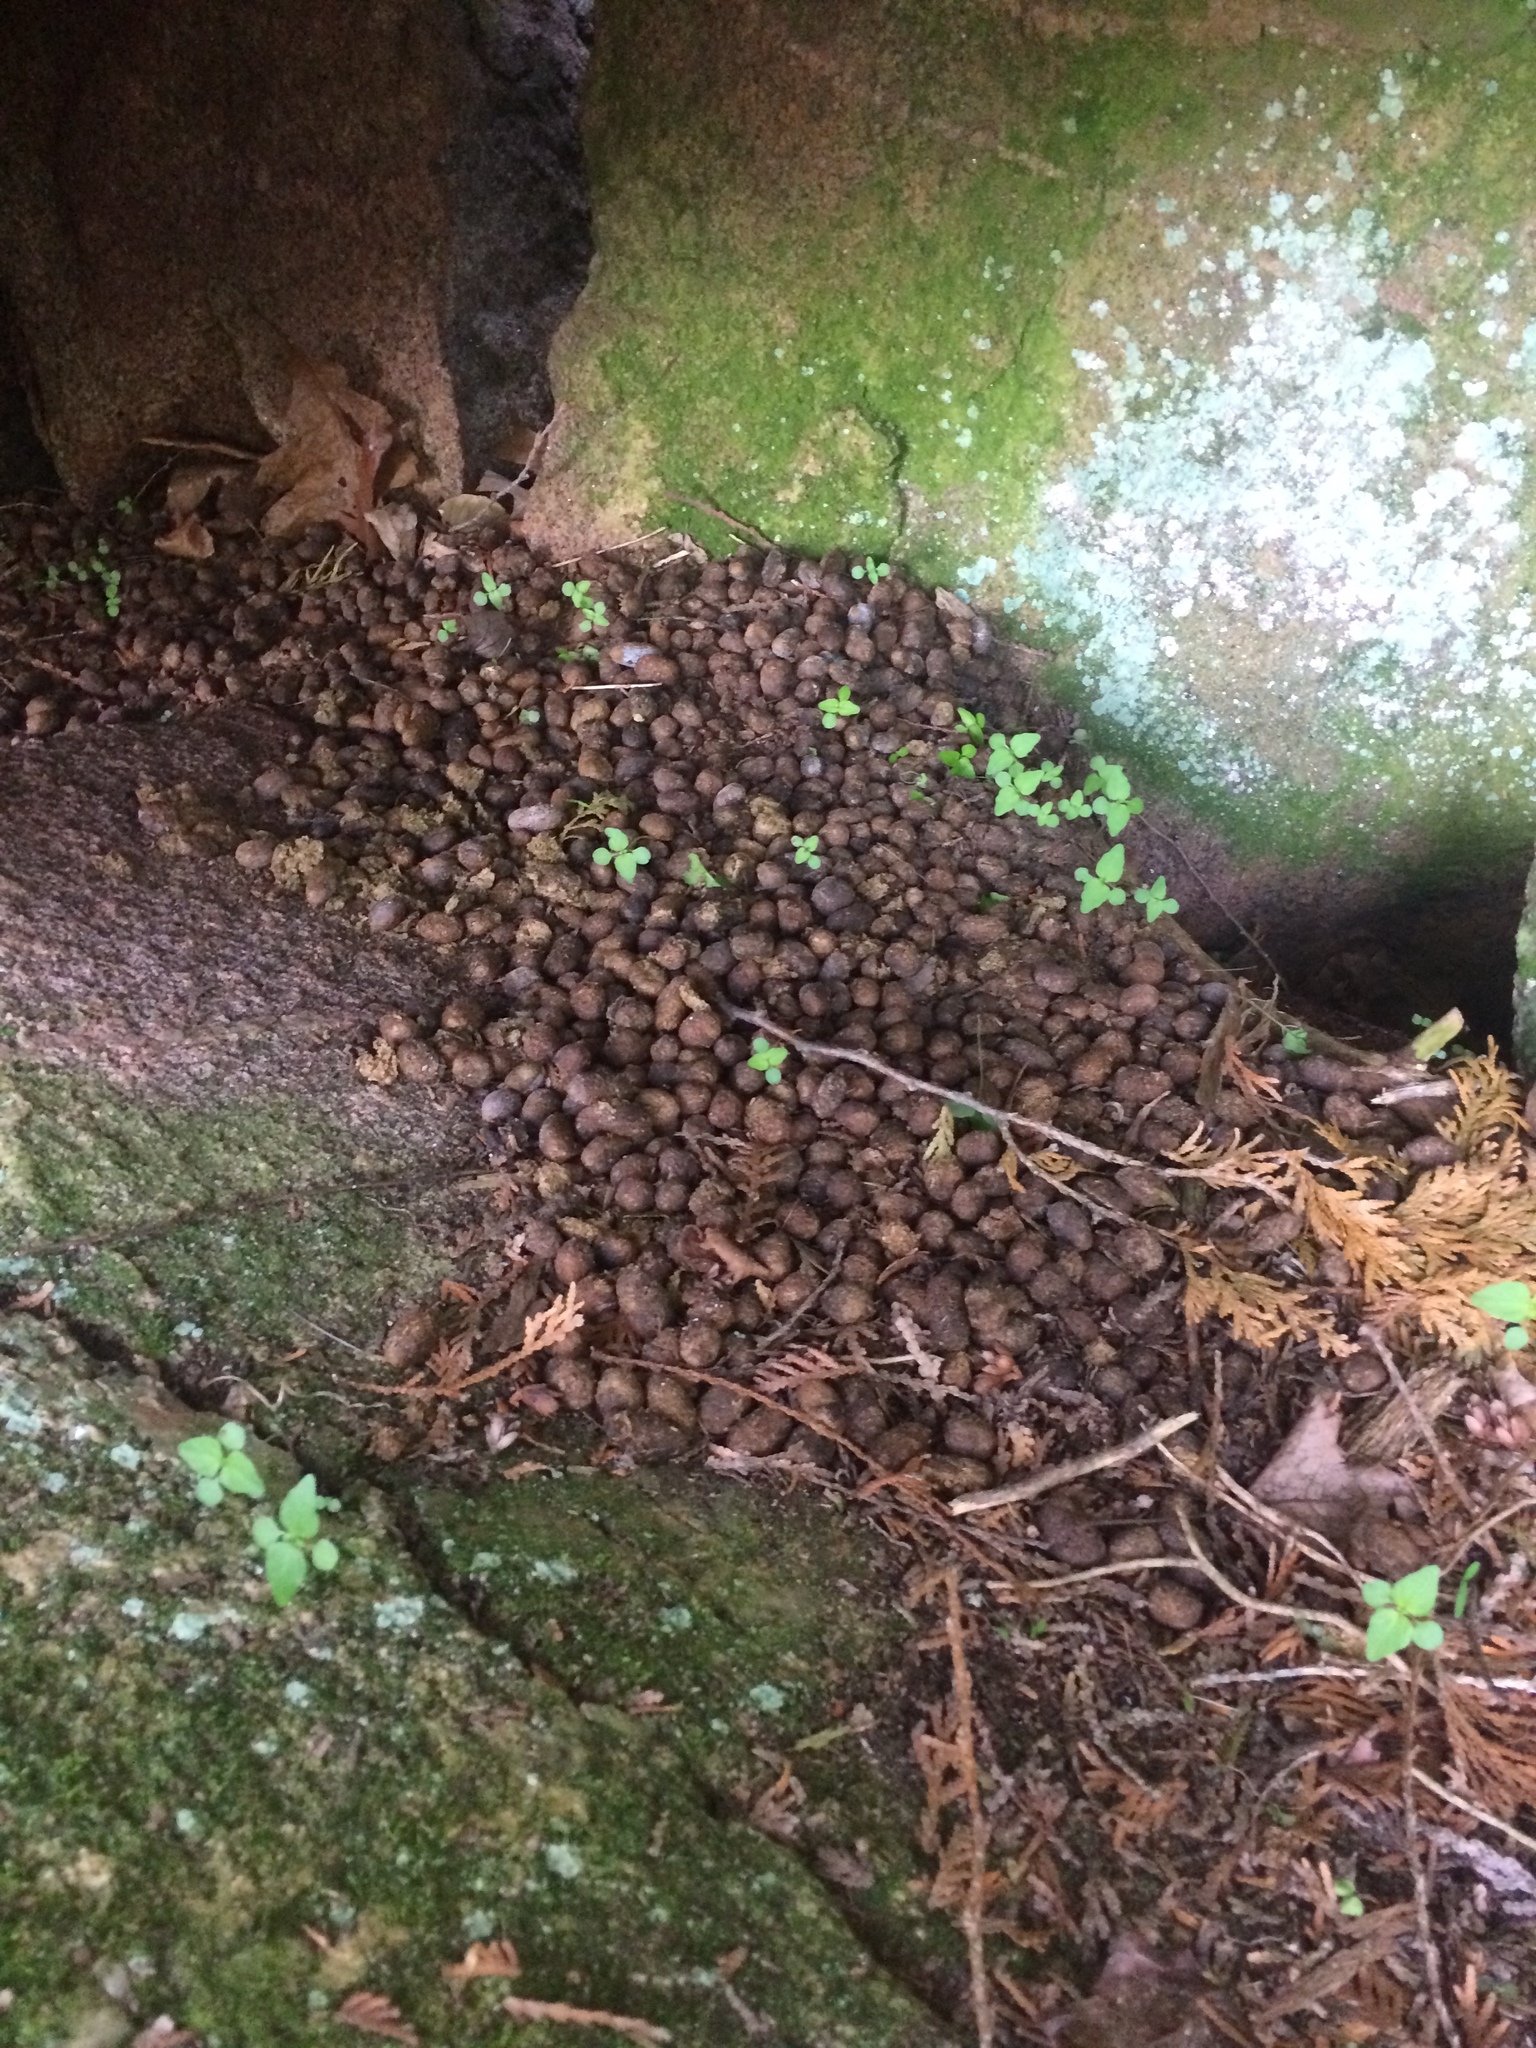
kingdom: Animalia
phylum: Chordata
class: Mammalia
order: Rodentia
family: Erethizontidae
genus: Erethizon
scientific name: Erethizon dorsatus
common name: North american porcupine
